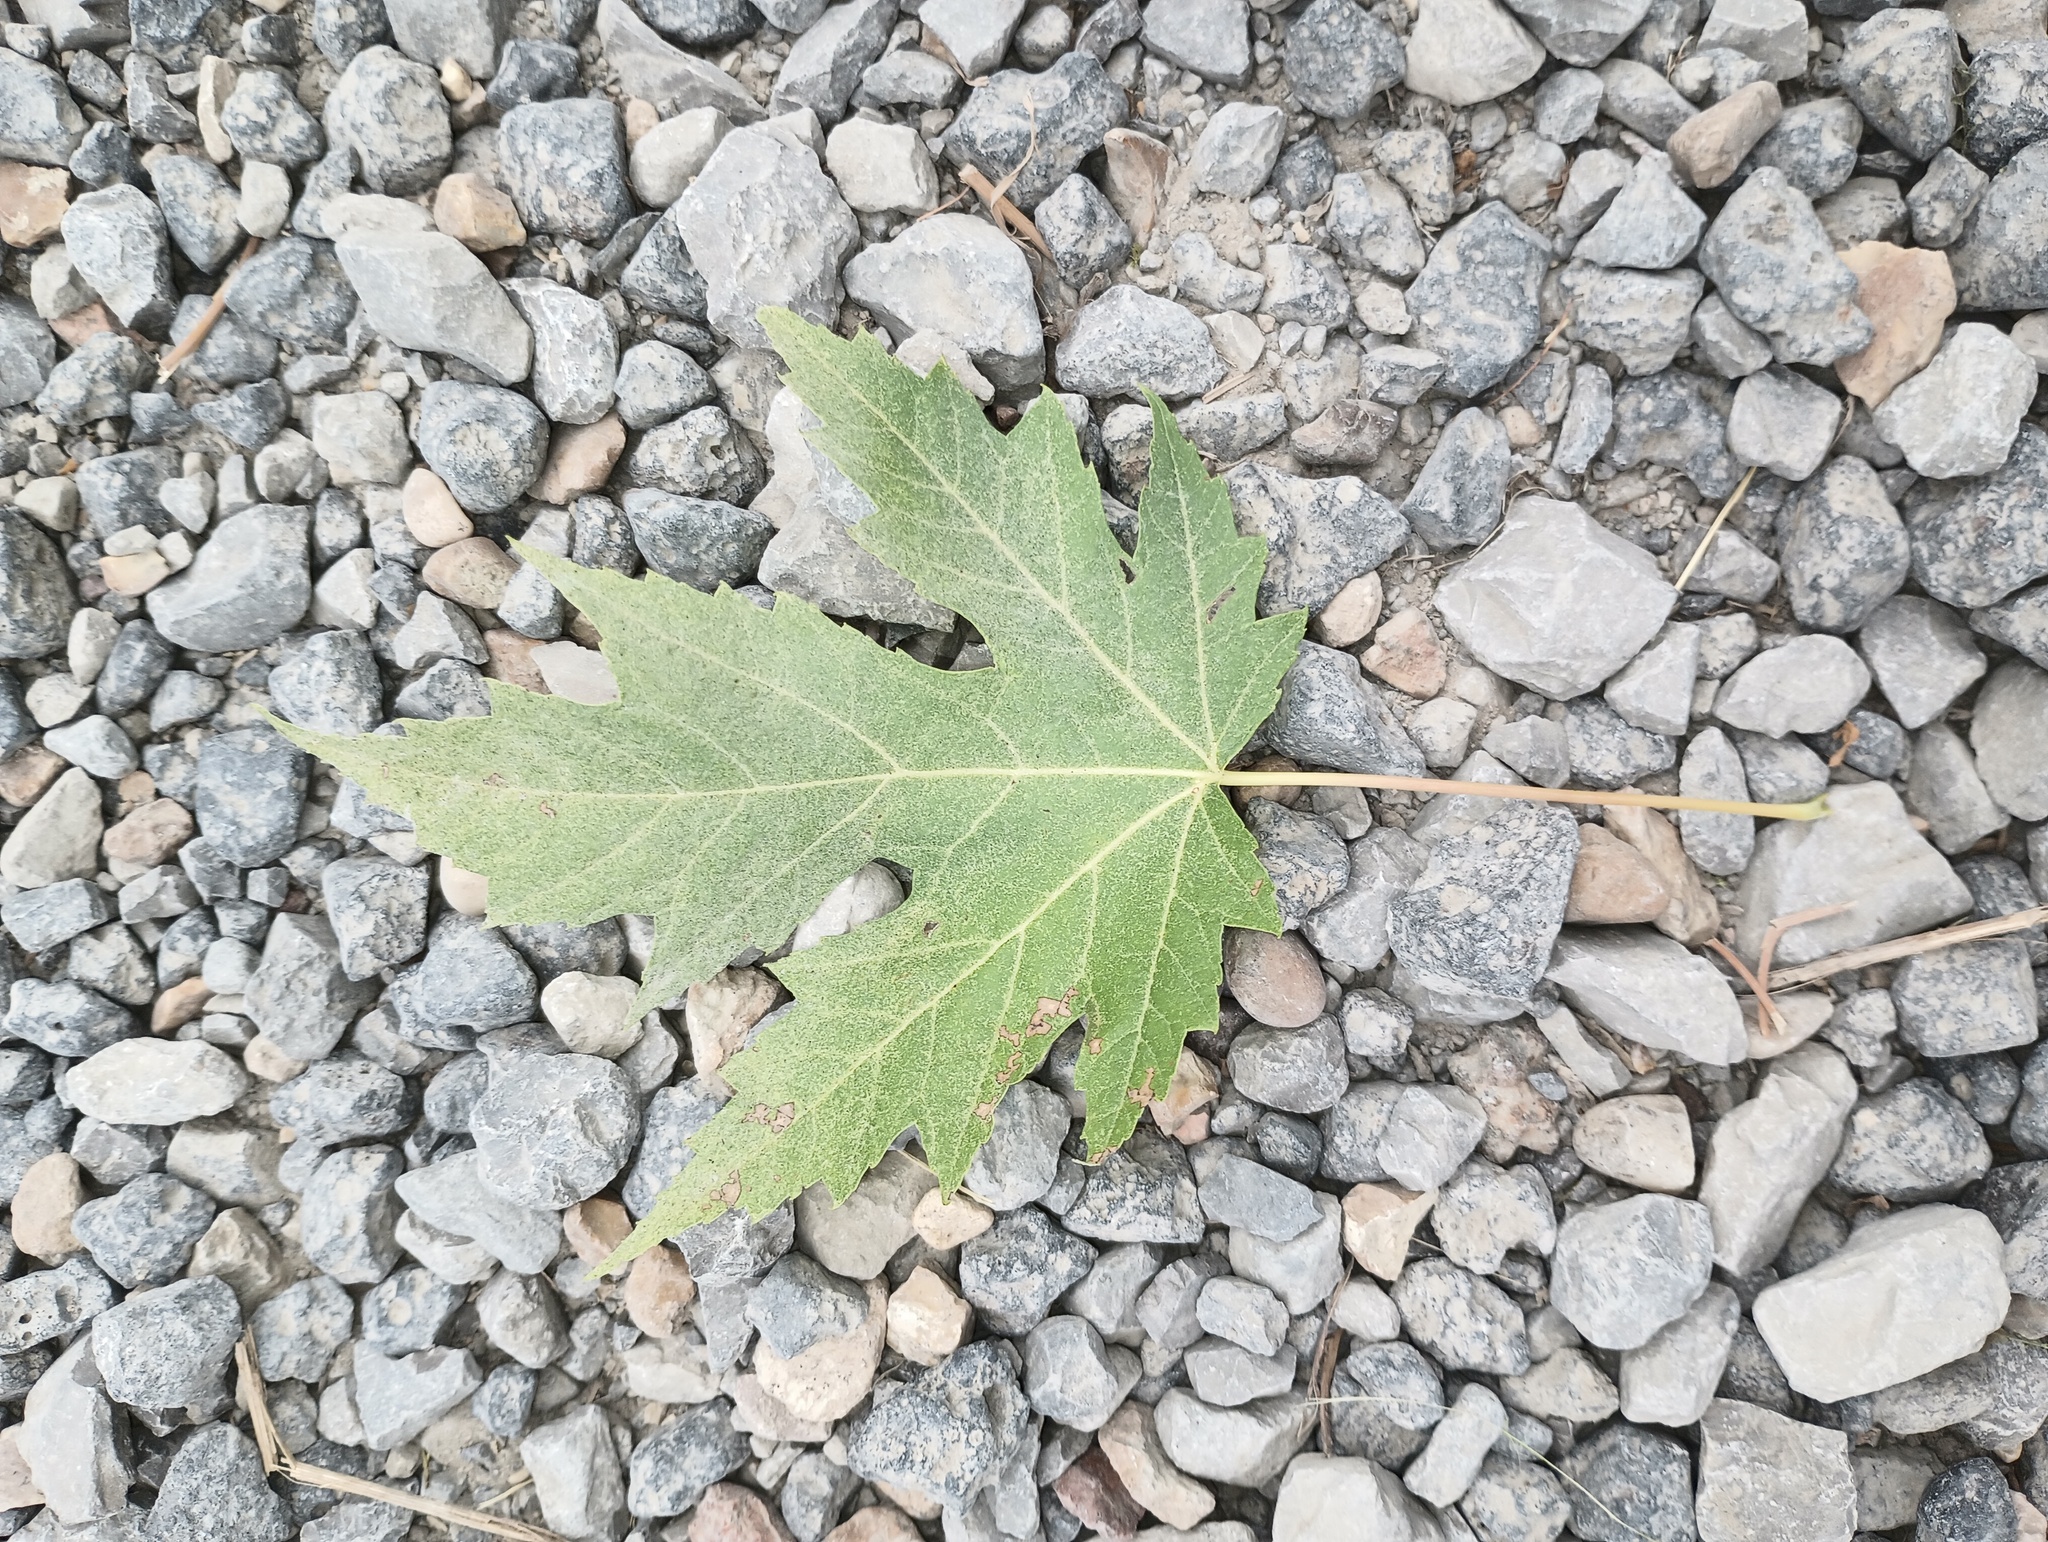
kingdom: Plantae
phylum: Tracheophyta
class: Magnoliopsida
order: Sapindales
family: Sapindaceae
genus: Acer
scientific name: Acer saccharinum
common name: Silver maple
